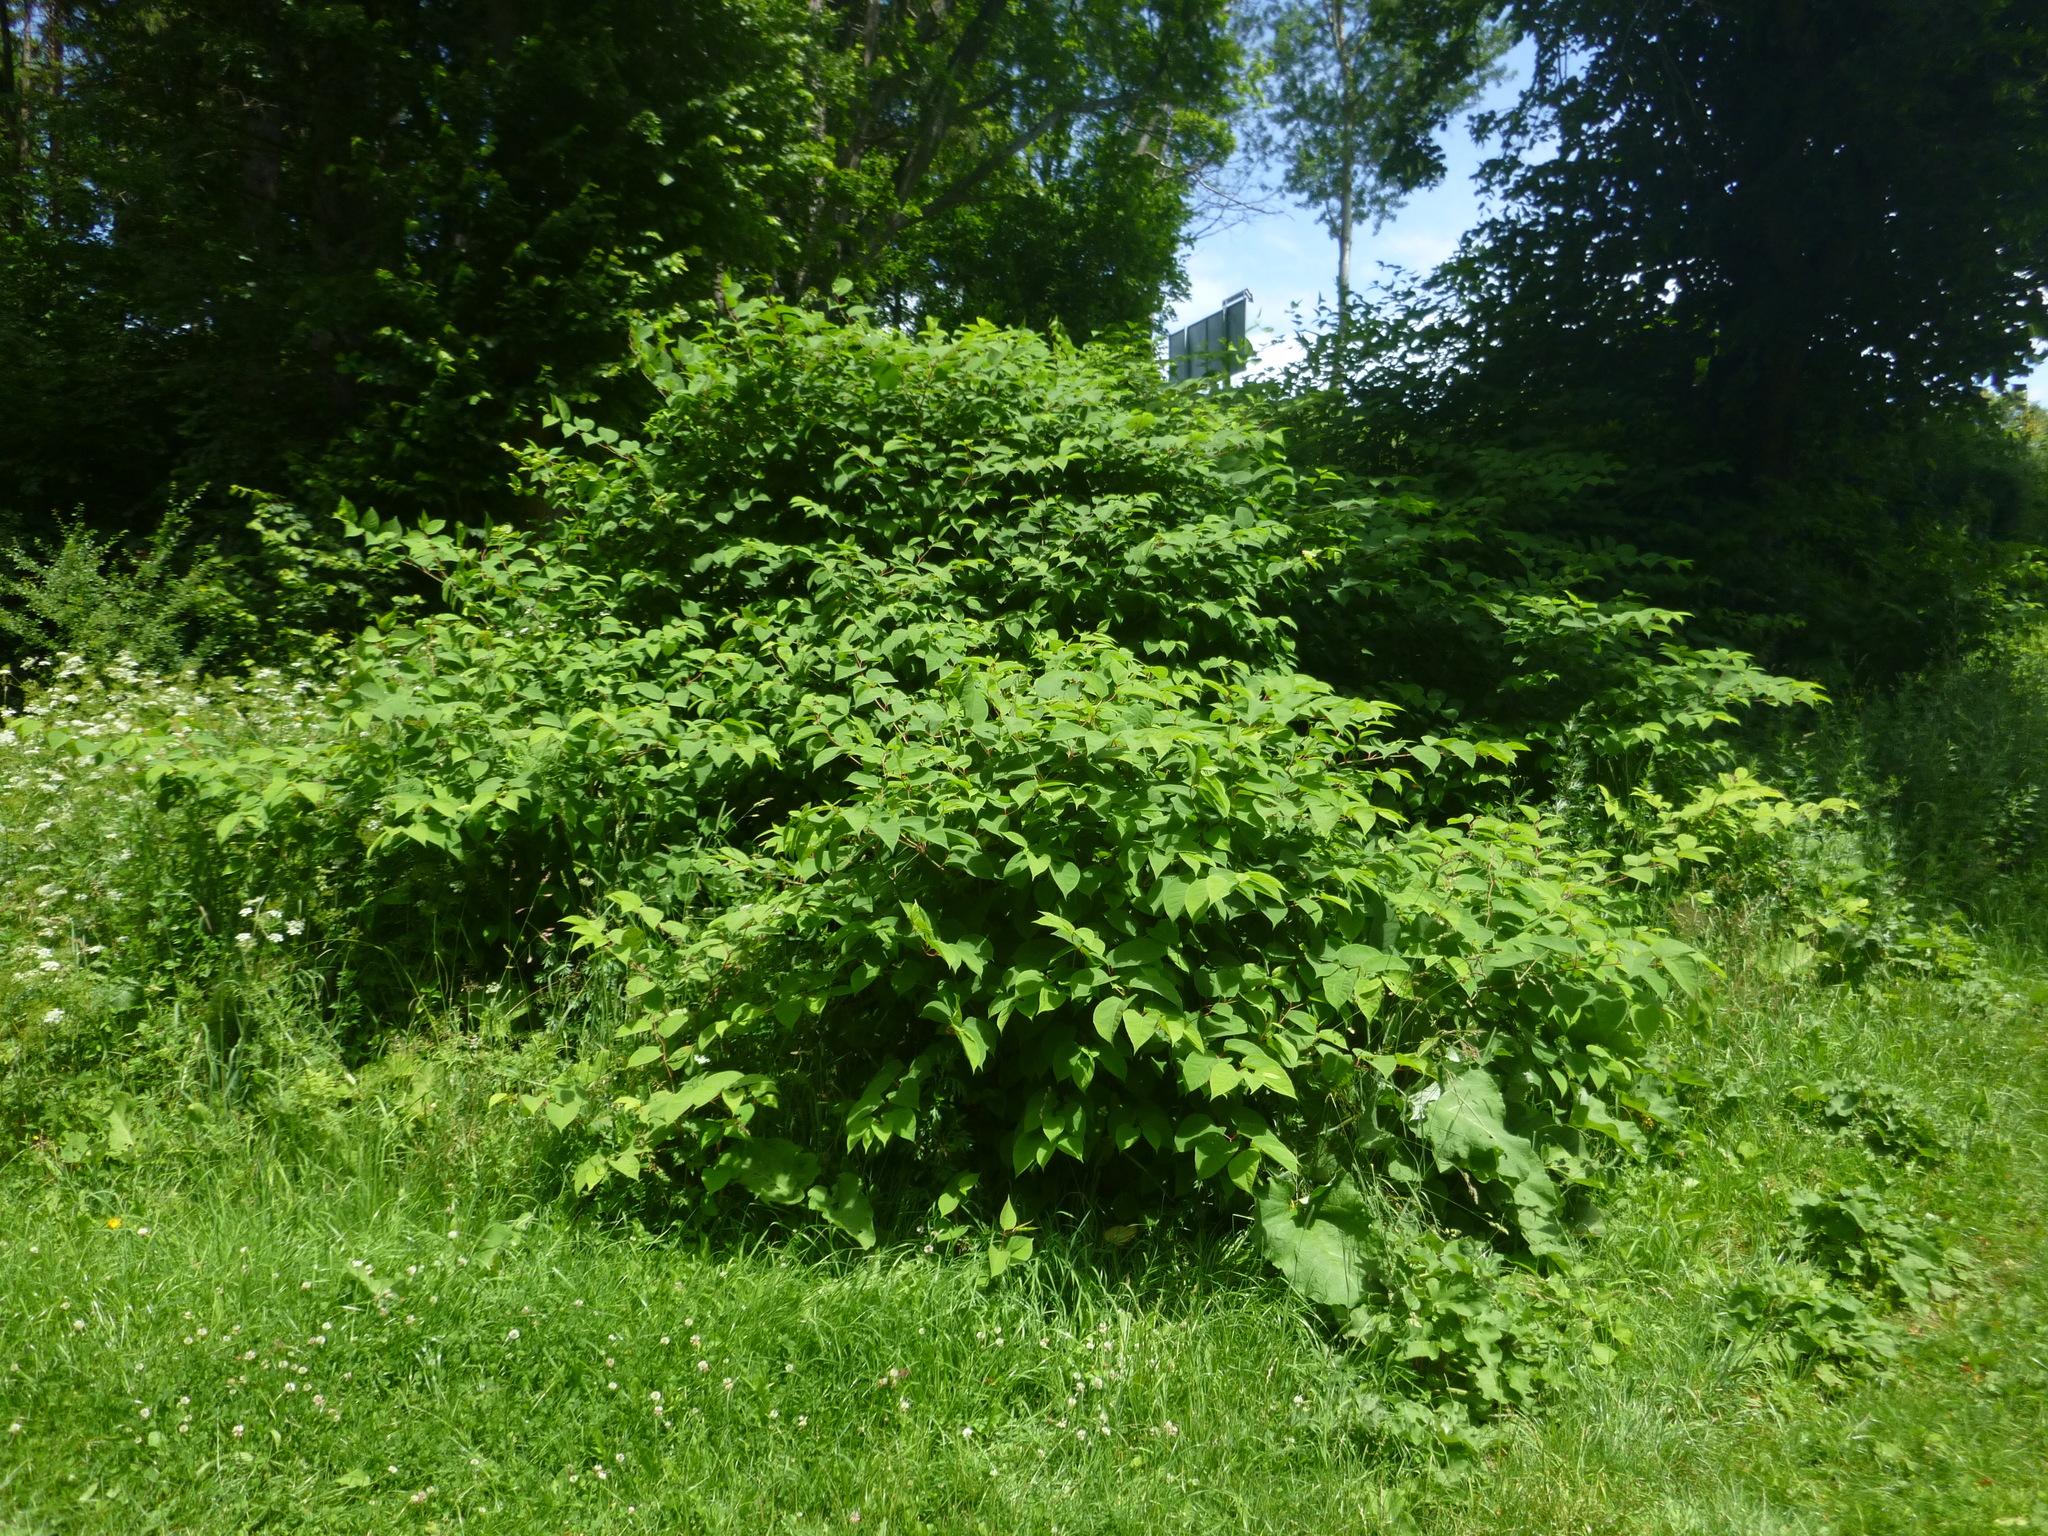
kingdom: Plantae
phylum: Tracheophyta
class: Magnoliopsida
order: Caryophyllales
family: Polygonaceae
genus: Reynoutria
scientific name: Reynoutria bohemica
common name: Bohemian knotweed
